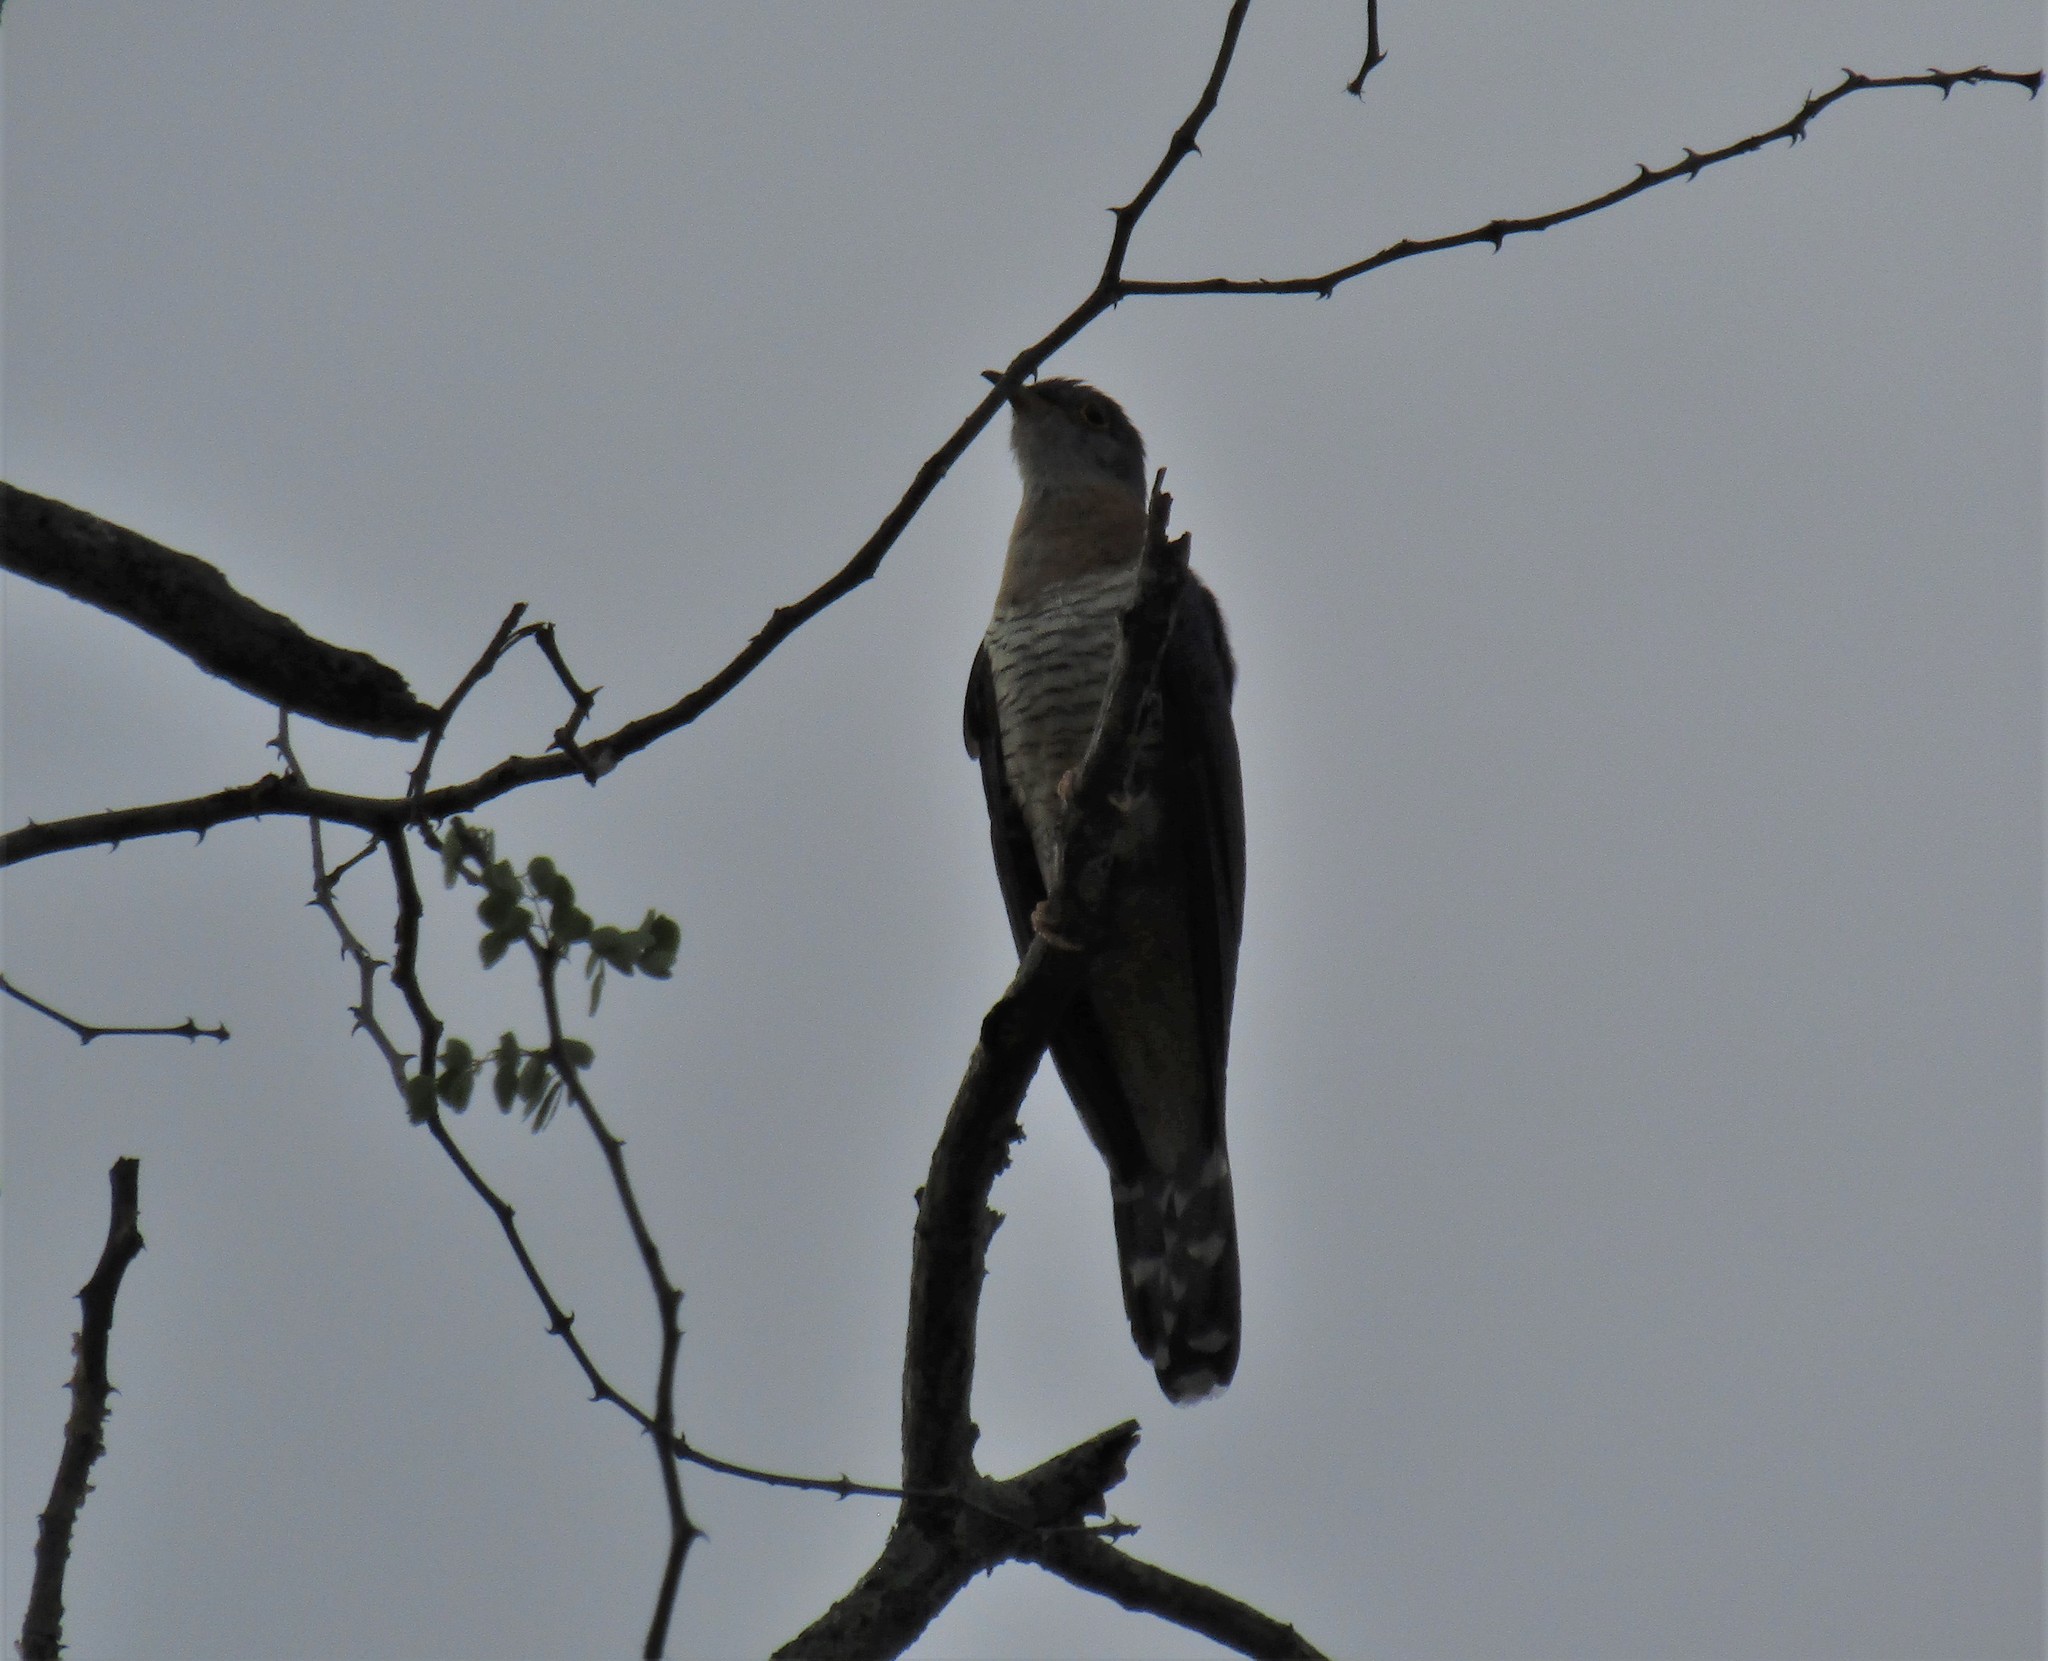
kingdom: Animalia
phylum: Chordata
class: Aves
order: Cuculiformes
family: Cuculidae
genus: Cuculus
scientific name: Cuculus solitarius
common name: Red-chested cuckoo
